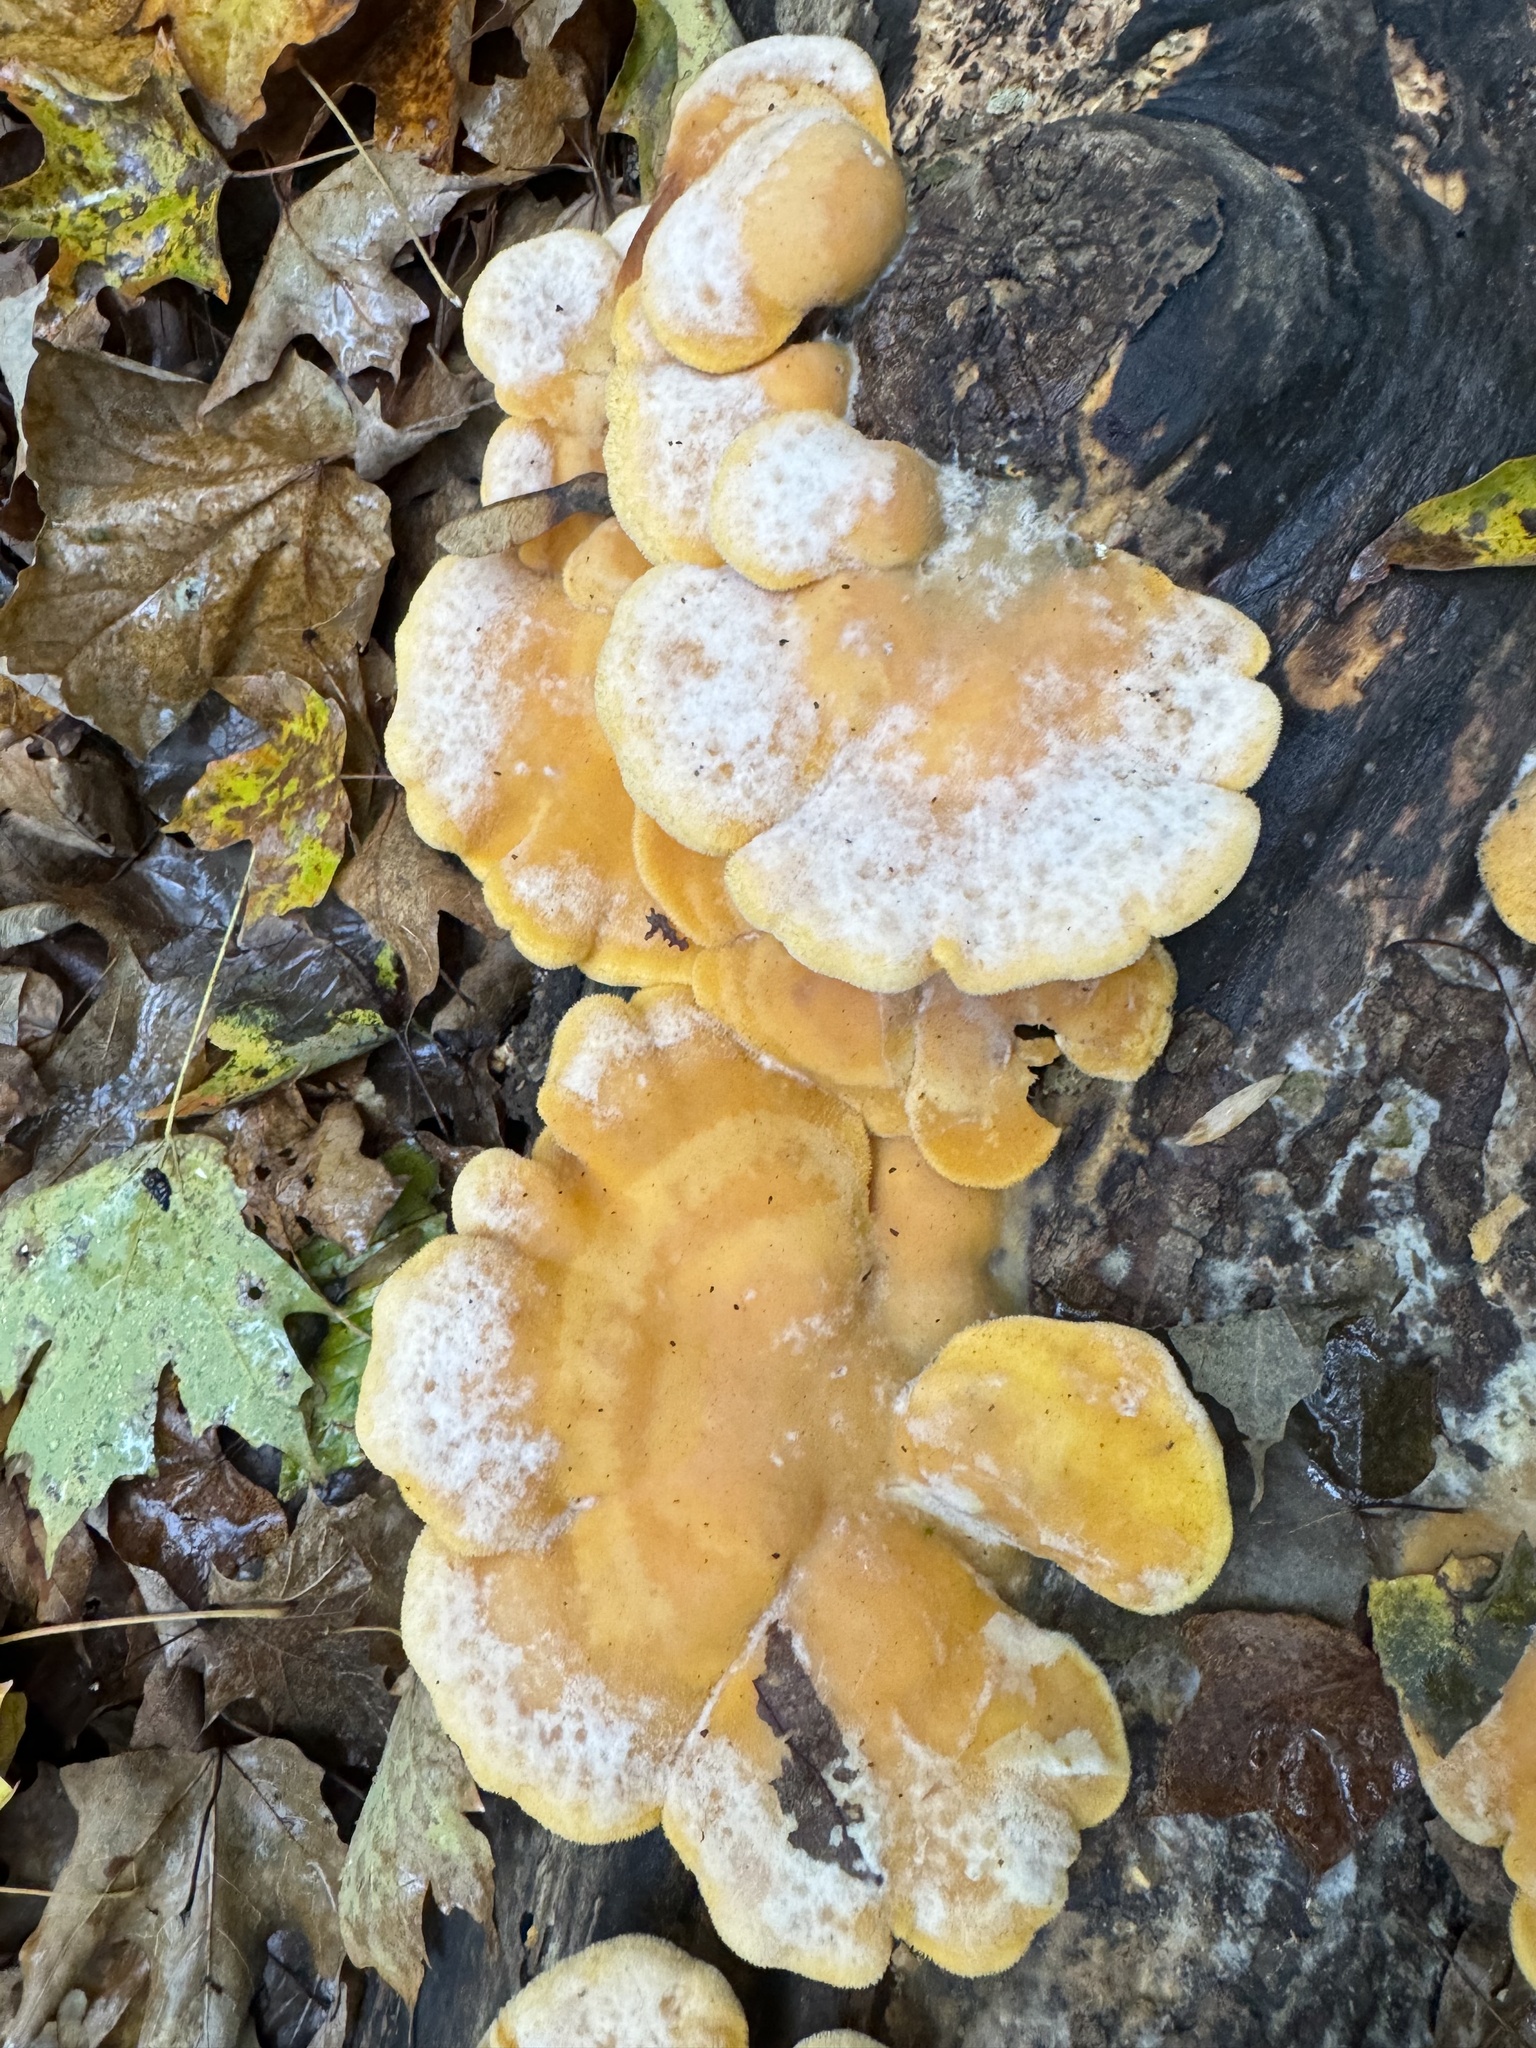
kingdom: Fungi
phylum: Basidiomycota
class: Agaricomycetes
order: Agaricales
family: Phyllotopsidaceae
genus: Phyllotopsis
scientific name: Phyllotopsis nidulans
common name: Orange mock oyster
